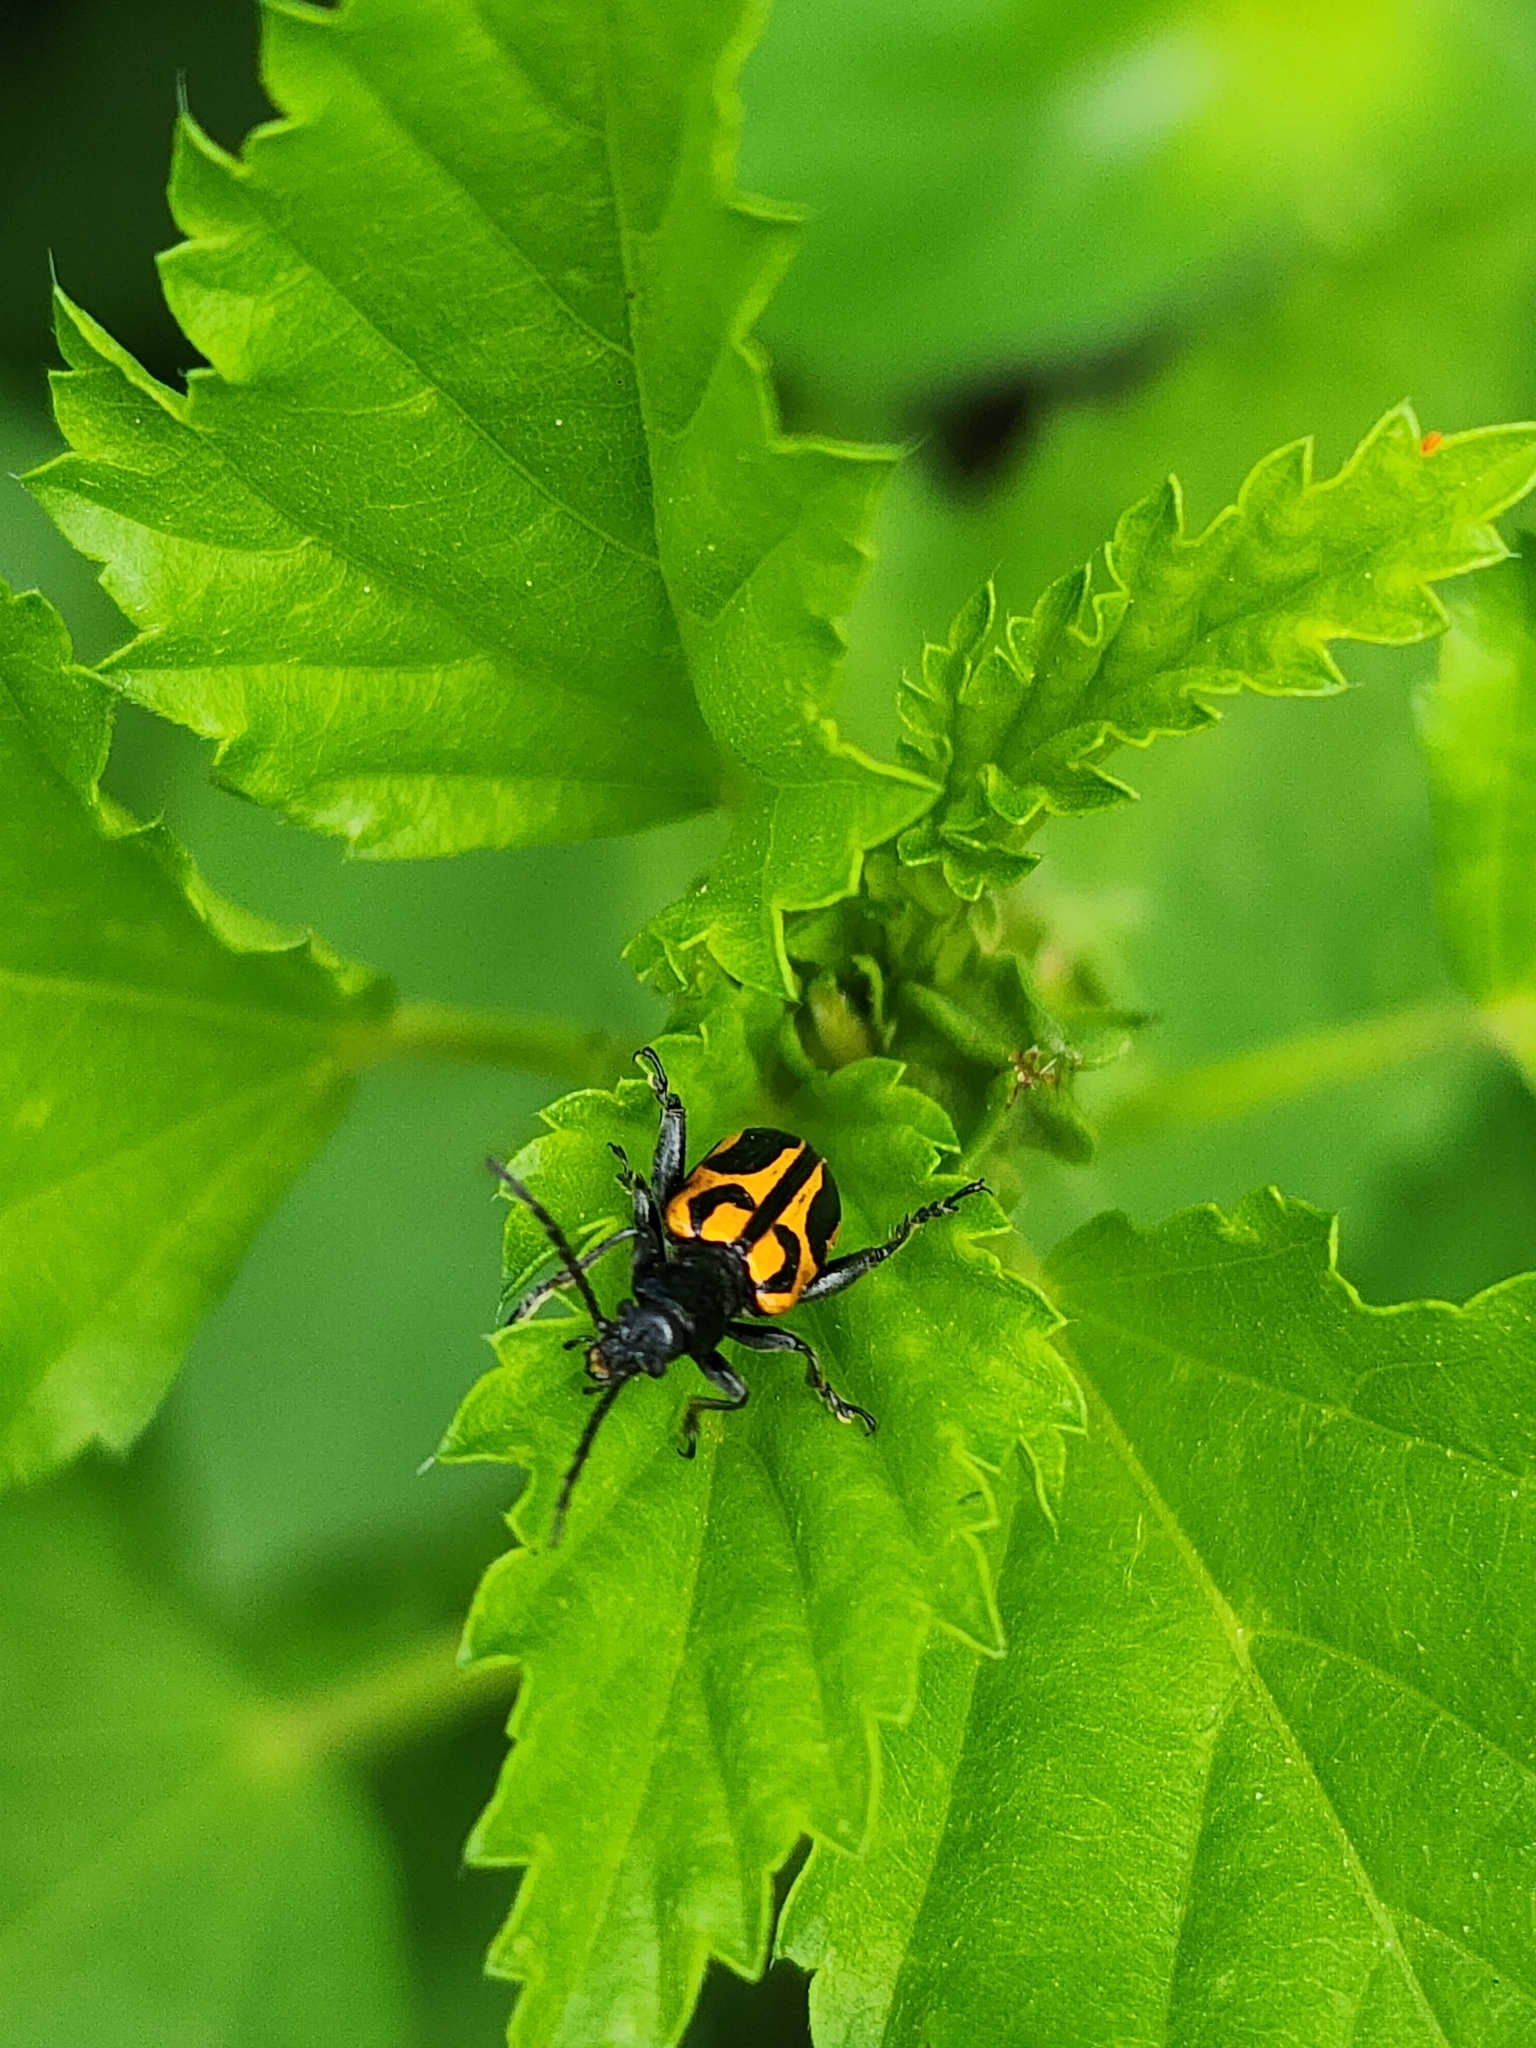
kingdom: Animalia
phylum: Arthropoda
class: Insecta
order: Coleoptera
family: Chrysomelidae
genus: Atalasis
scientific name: Atalasis
